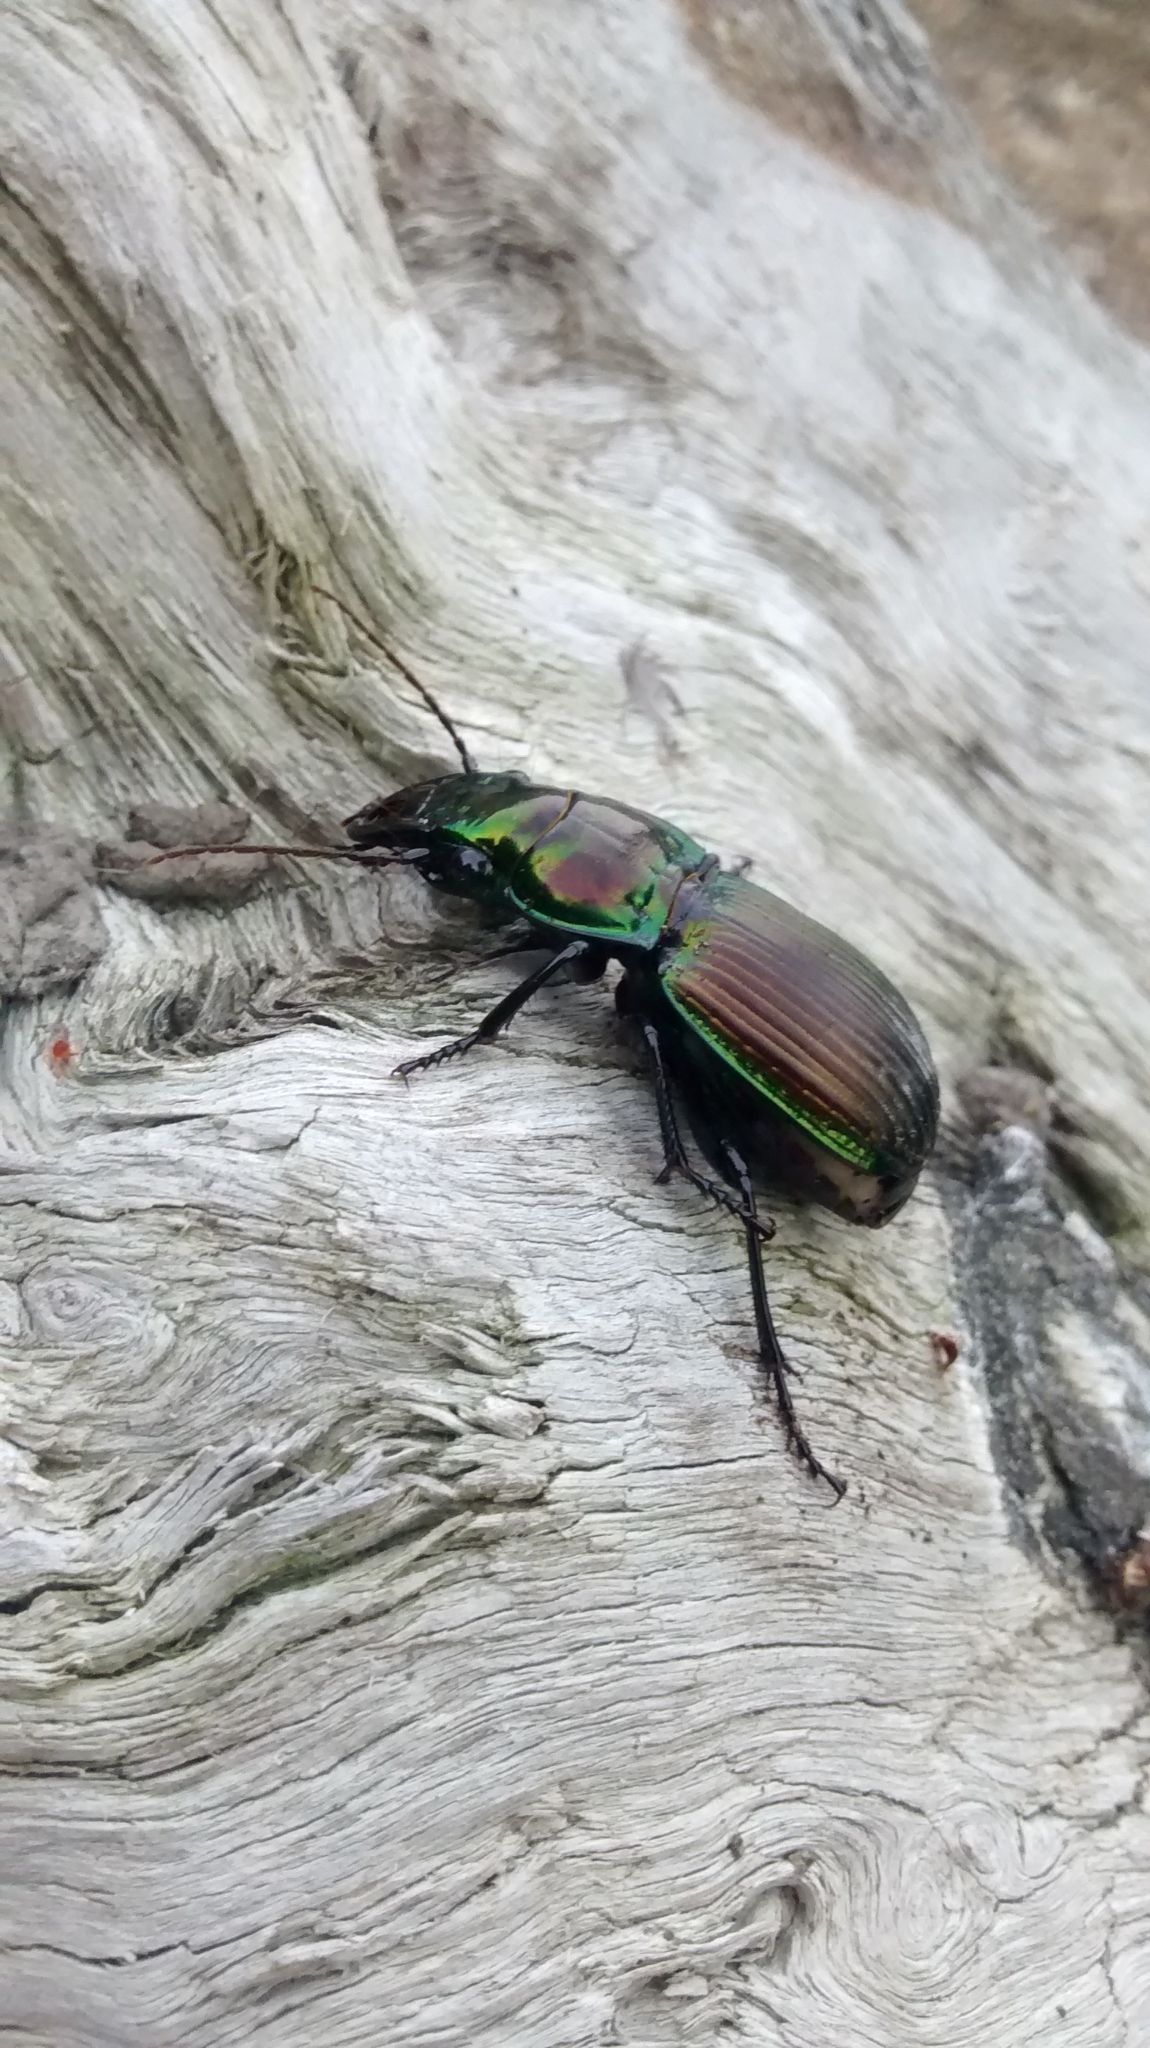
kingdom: Animalia
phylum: Arthropoda
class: Insecta
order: Coleoptera
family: Carabidae
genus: Megadromus
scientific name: Megadromus antarcticus
